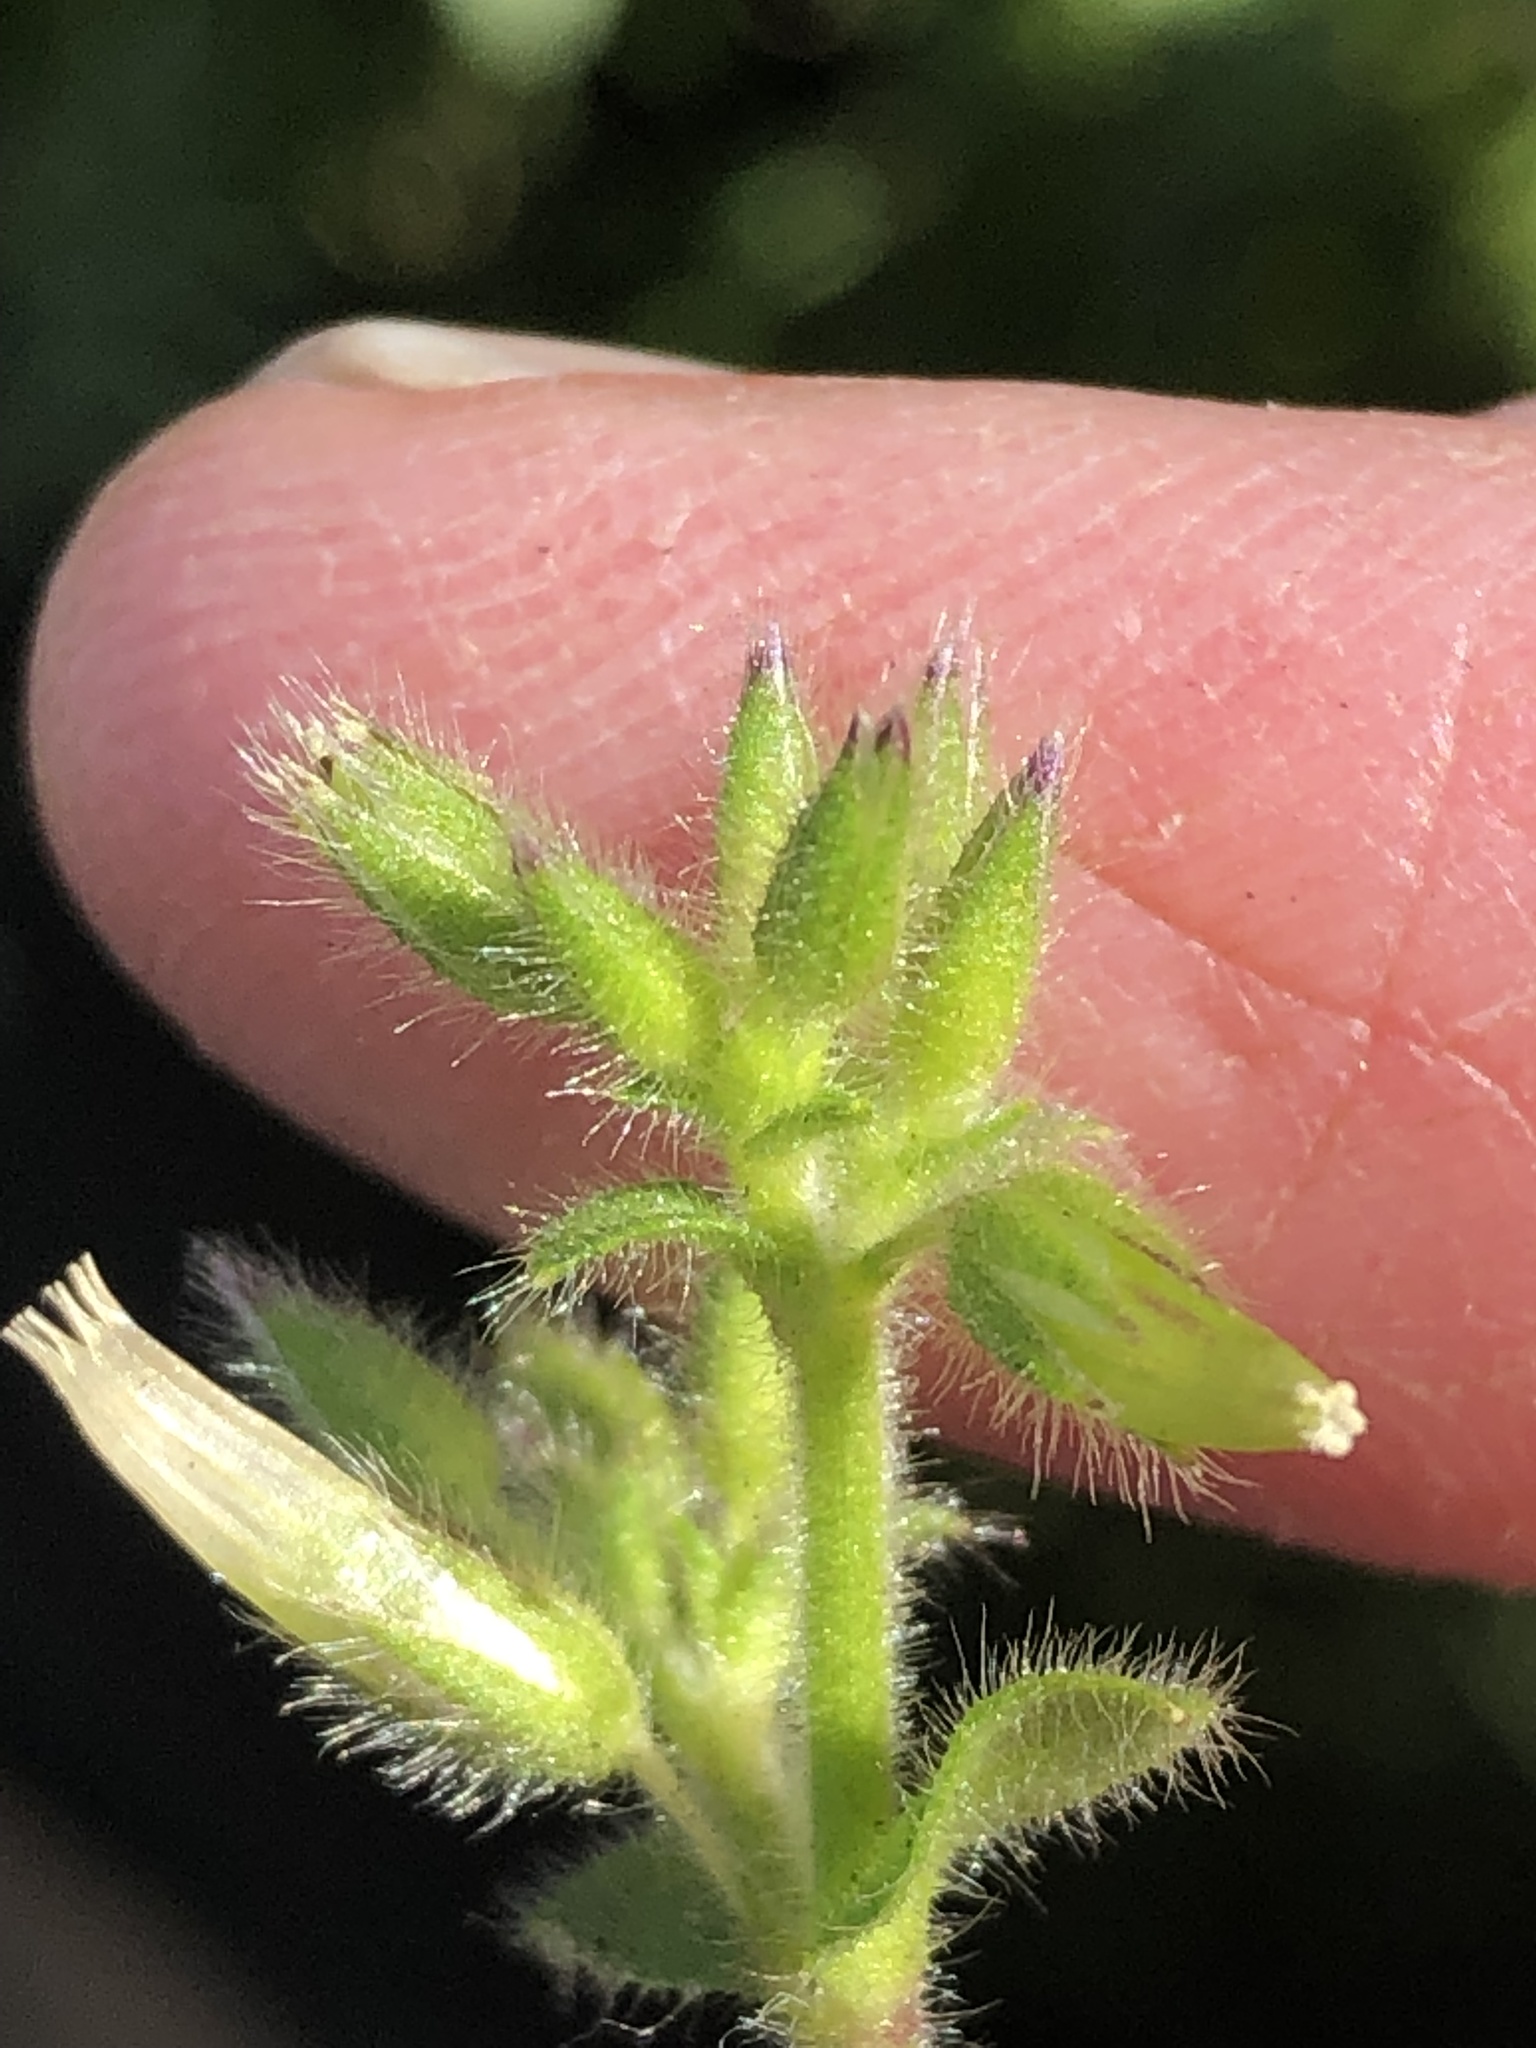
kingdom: Plantae
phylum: Tracheophyta
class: Magnoliopsida
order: Caryophyllales
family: Caryophyllaceae
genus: Cerastium
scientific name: Cerastium glomeratum
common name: Sticky chickweed
